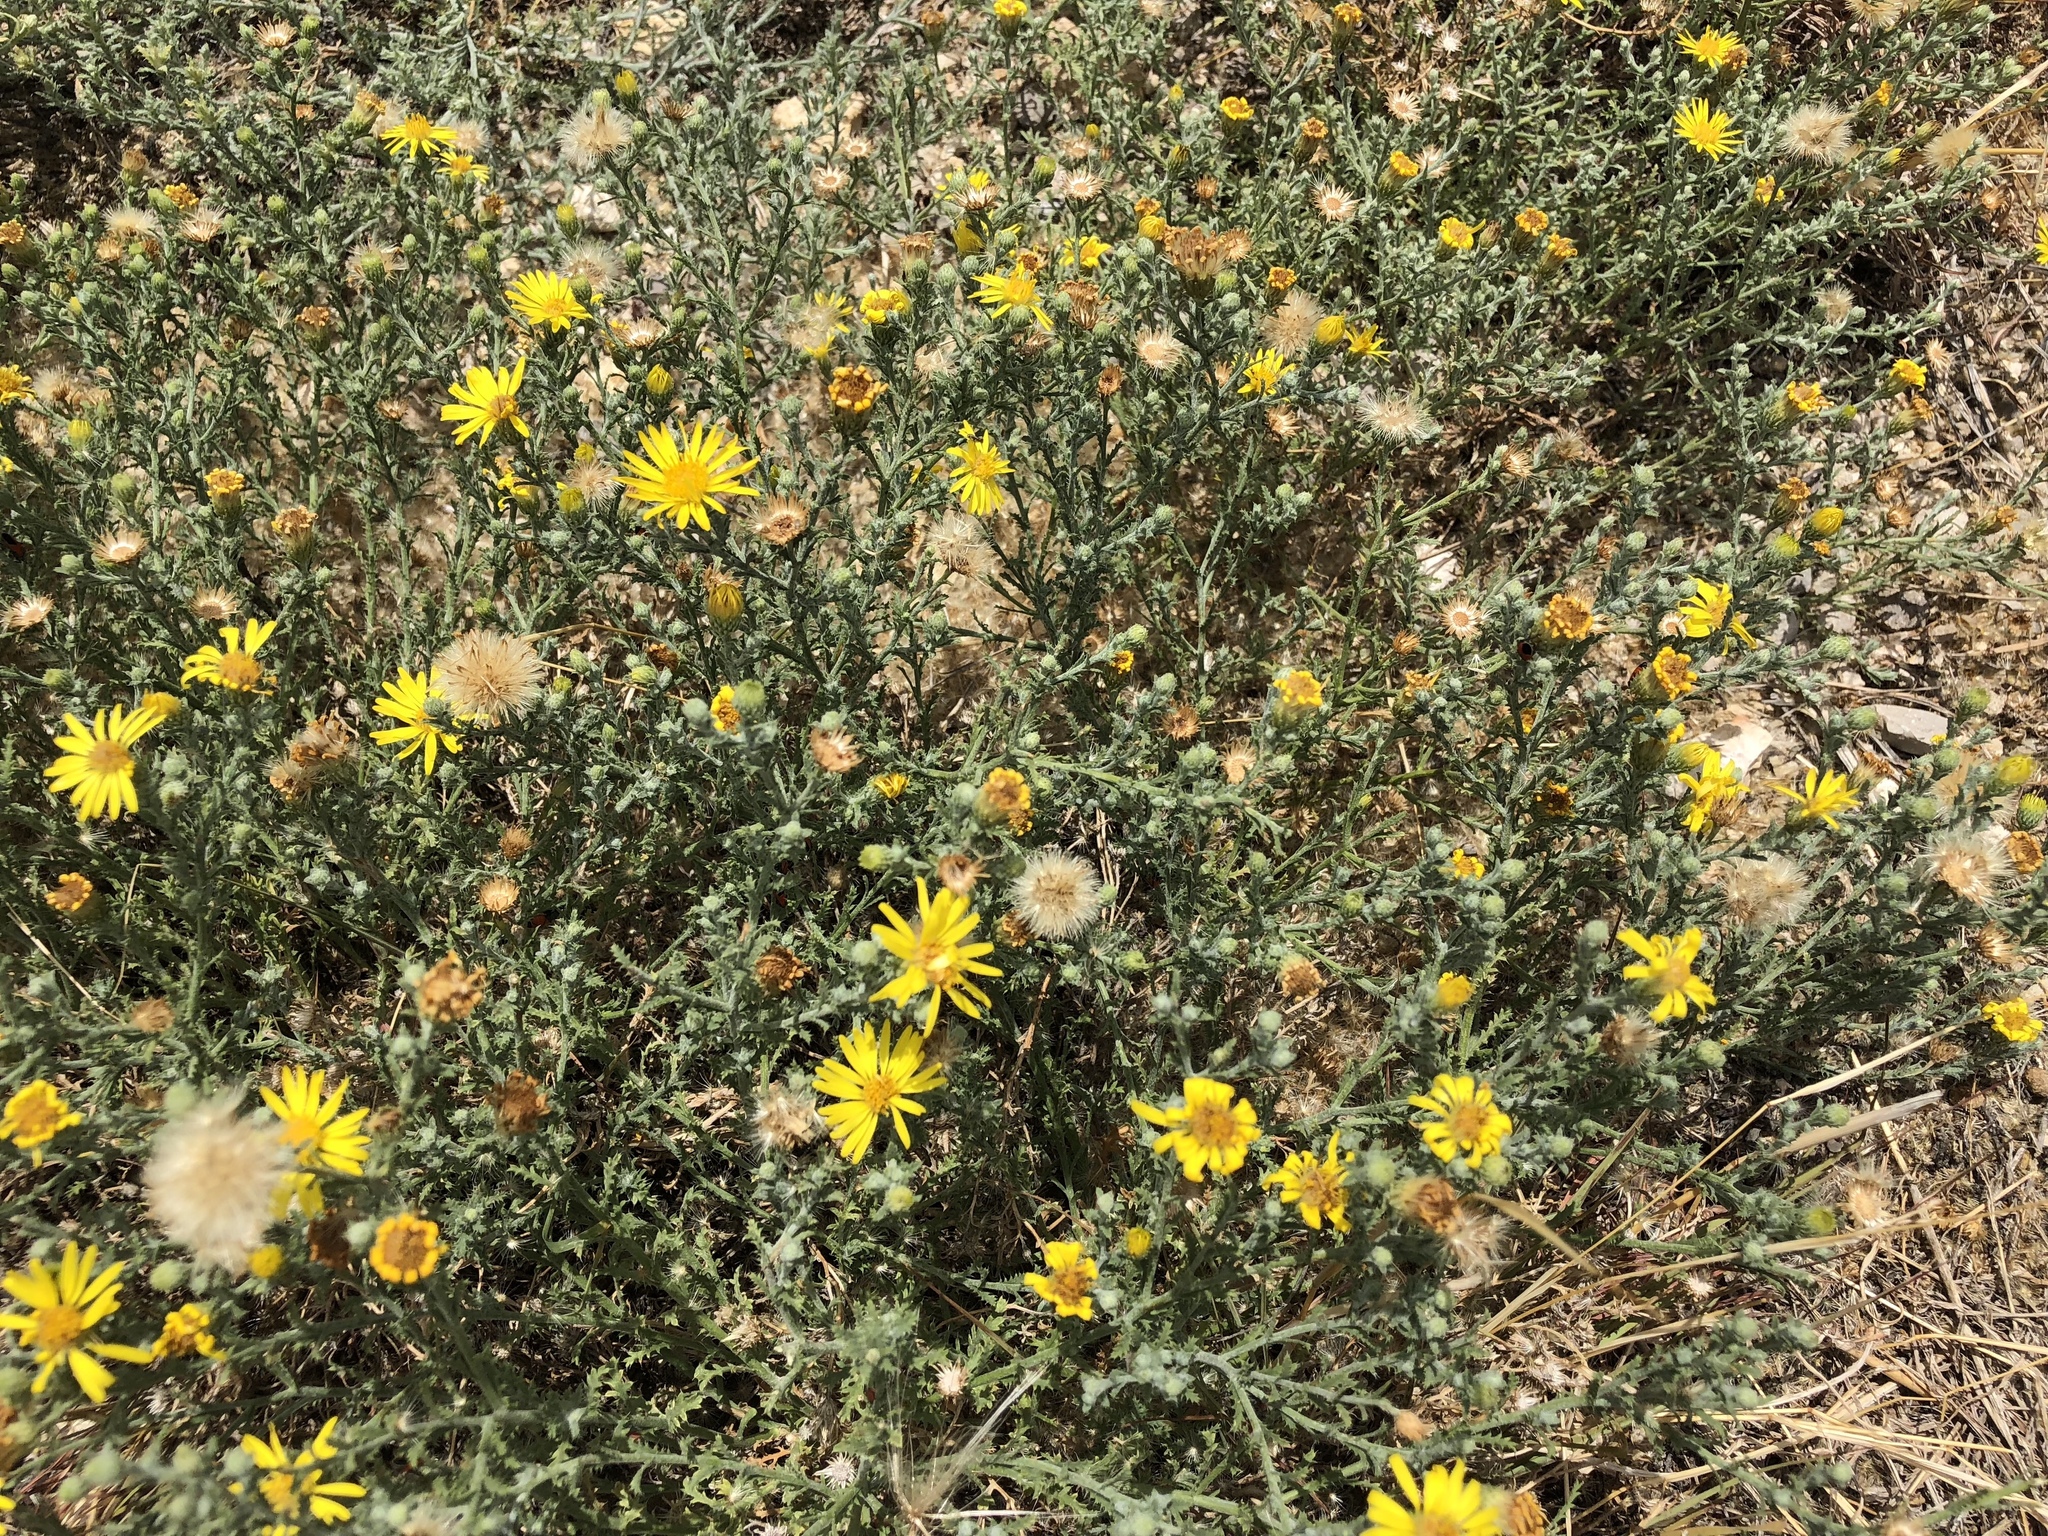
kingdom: Plantae
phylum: Tracheophyta
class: Magnoliopsida
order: Asterales
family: Asteraceae
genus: Xanthisma
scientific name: Xanthisma spinulosum
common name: Spiny goldenweed
